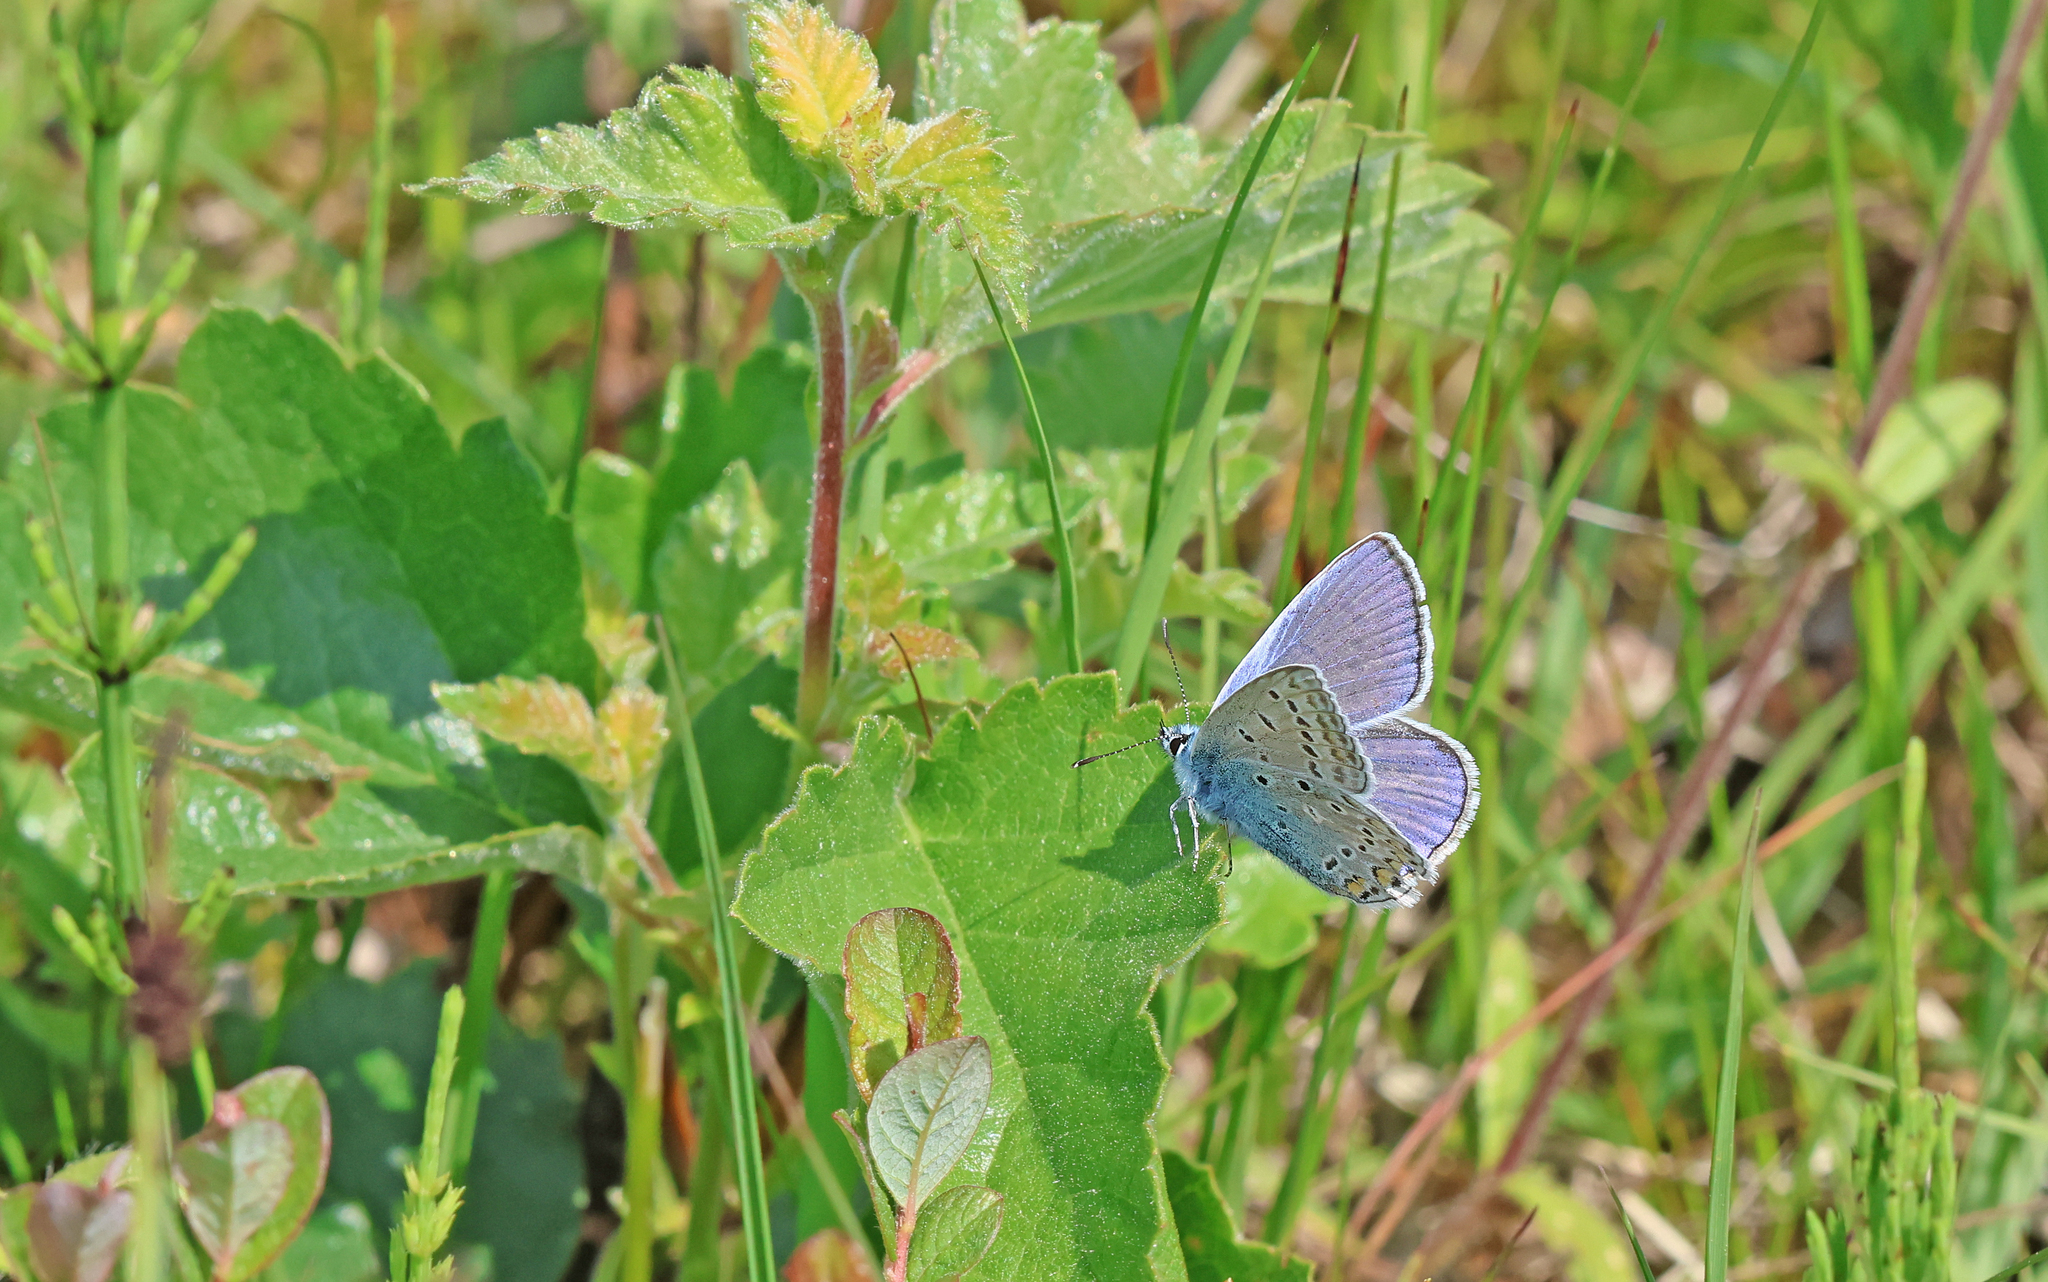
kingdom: Animalia
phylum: Arthropoda
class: Insecta
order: Lepidoptera
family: Lycaenidae
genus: Polyommatus
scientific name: Polyommatus icarus
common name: Common blue
